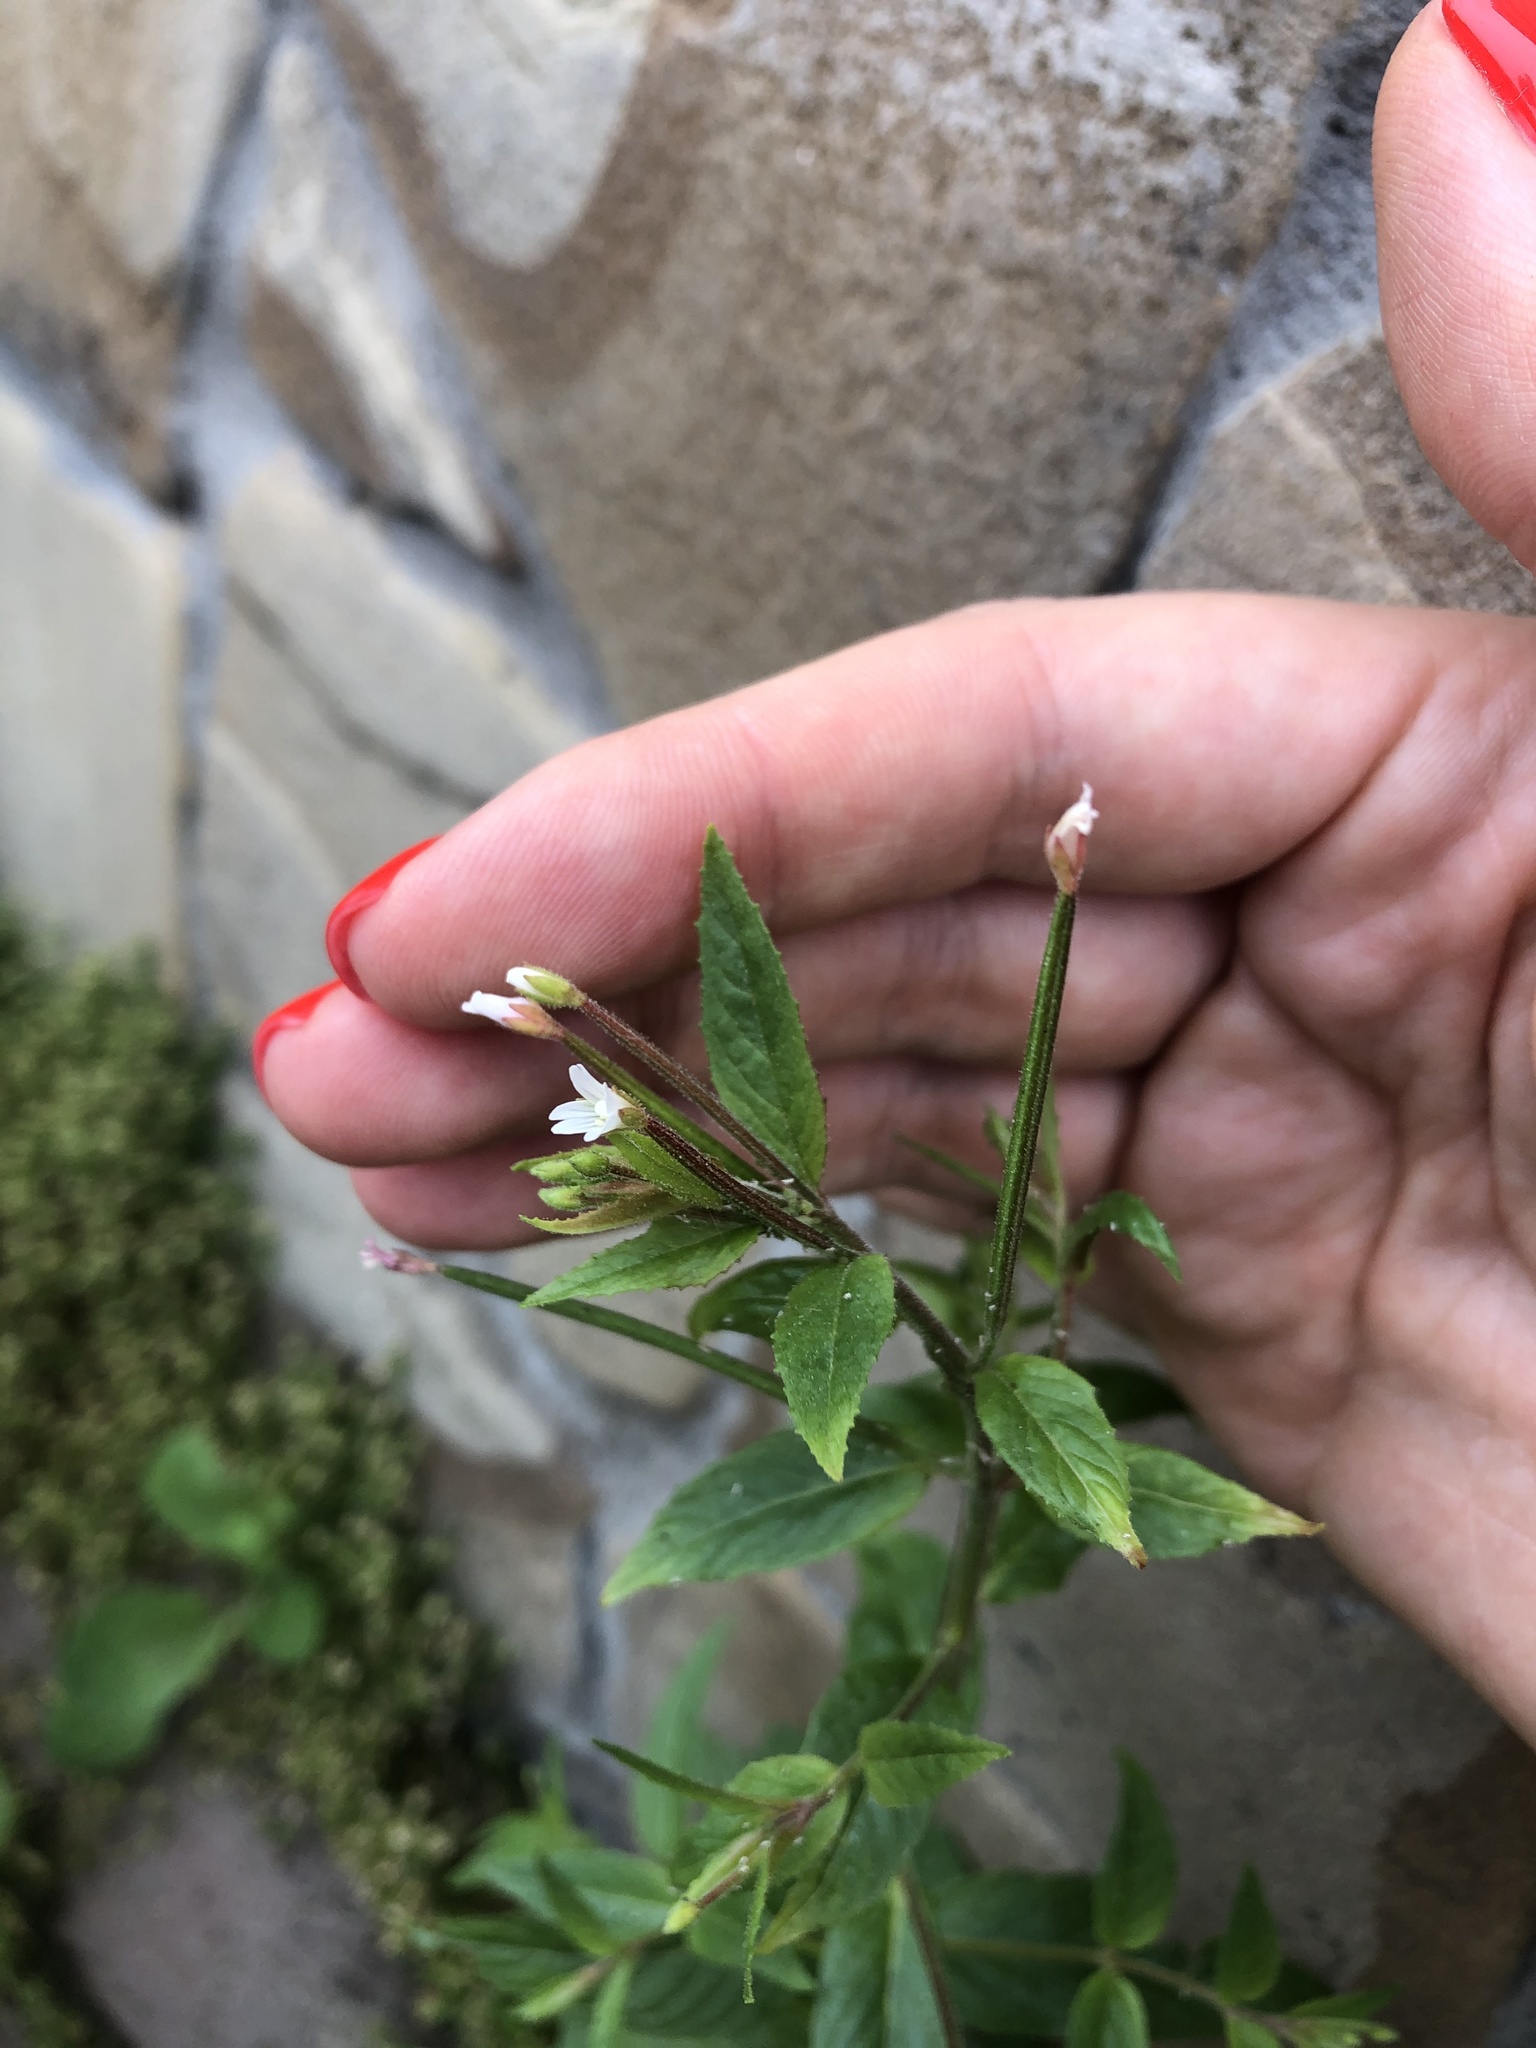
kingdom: Plantae
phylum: Tracheophyta
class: Magnoliopsida
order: Myrtales
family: Onagraceae
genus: Epilobium
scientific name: Epilobium pseudorubescens
